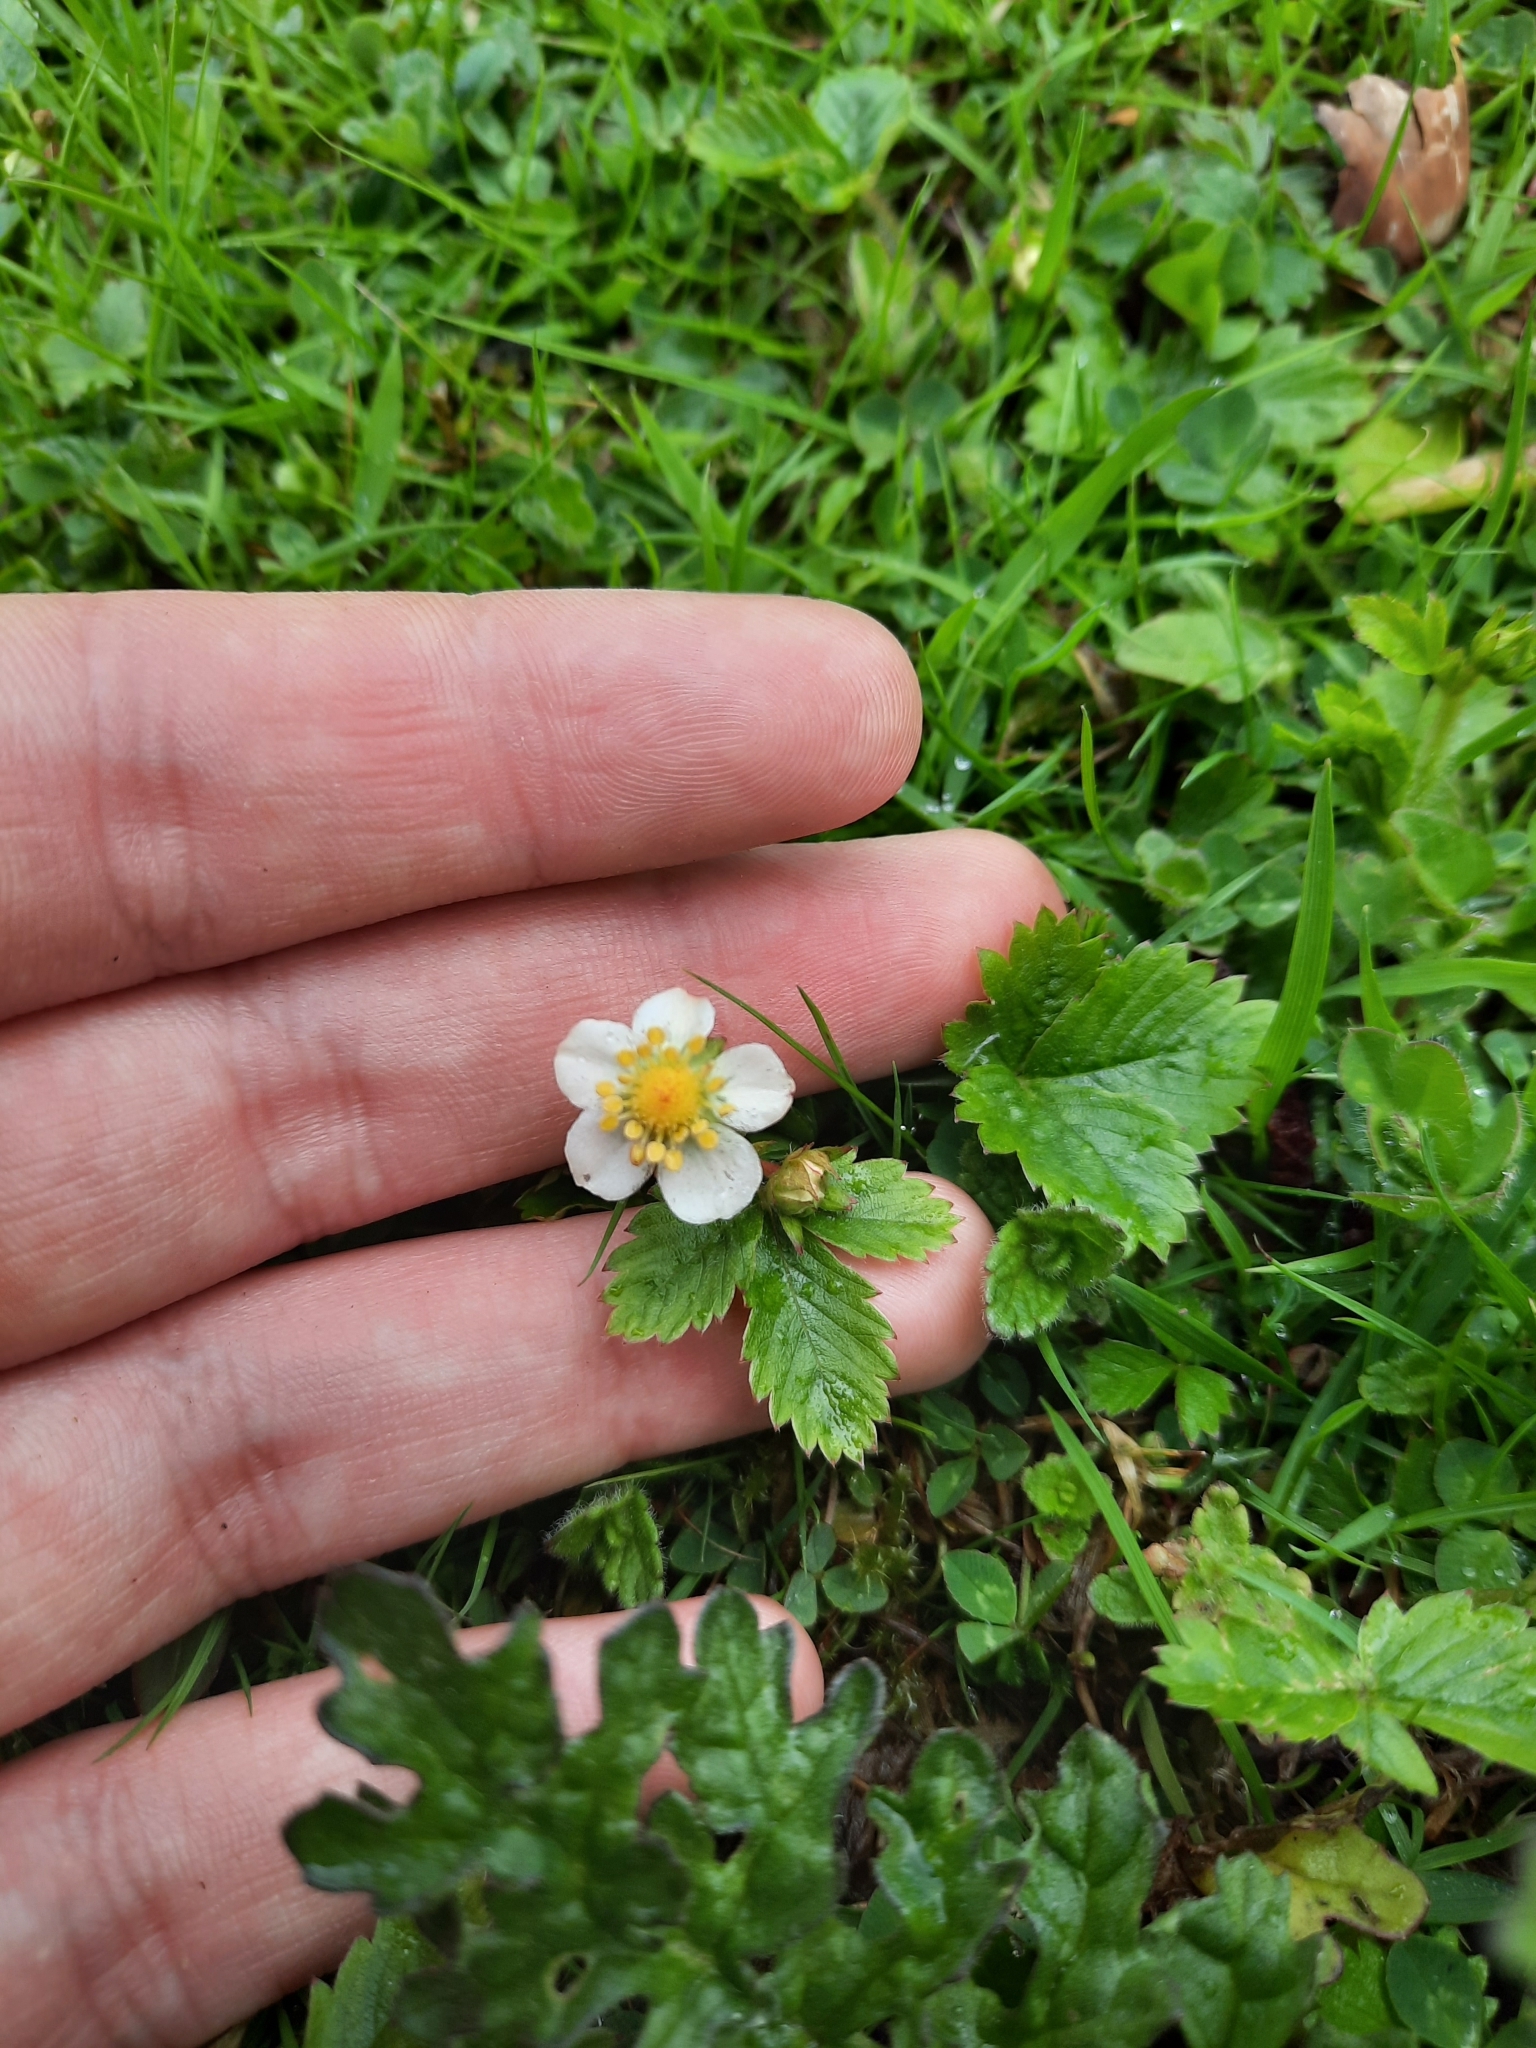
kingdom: Plantae
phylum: Tracheophyta
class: Magnoliopsida
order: Rosales
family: Rosaceae
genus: Fragaria
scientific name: Fragaria vesca
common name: Wild strawberry
